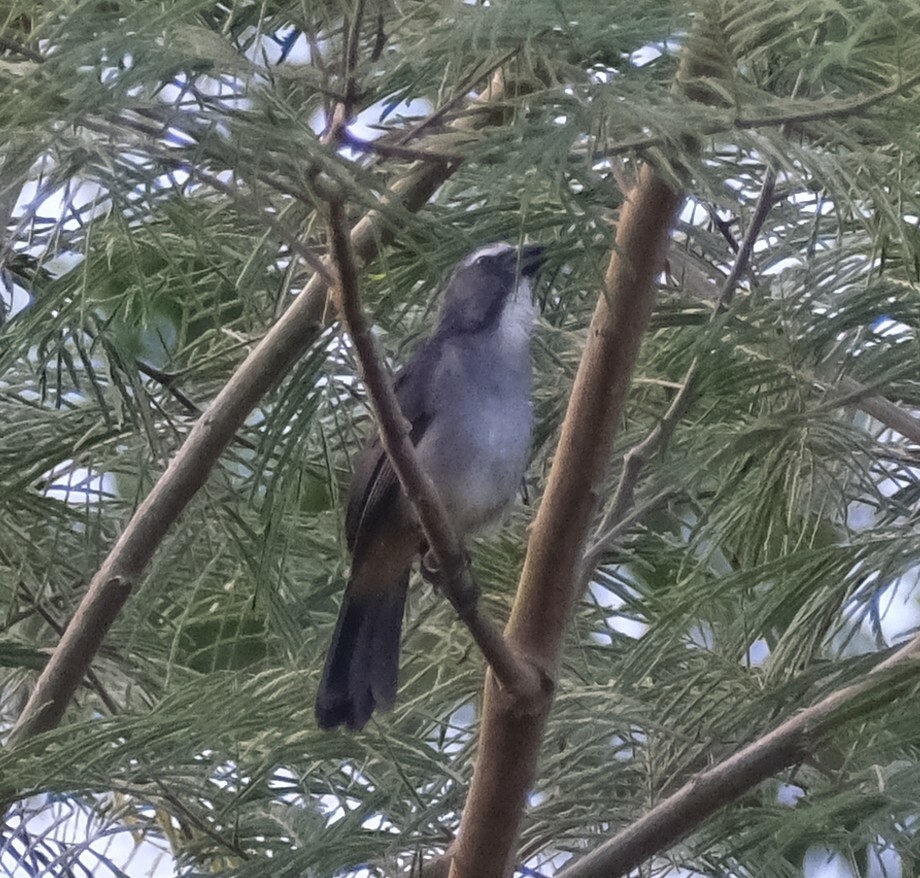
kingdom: Animalia
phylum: Chordata
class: Aves
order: Passeriformes
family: Thraupidae
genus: Saltator
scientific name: Saltator coerulescens
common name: Grayish saltator
